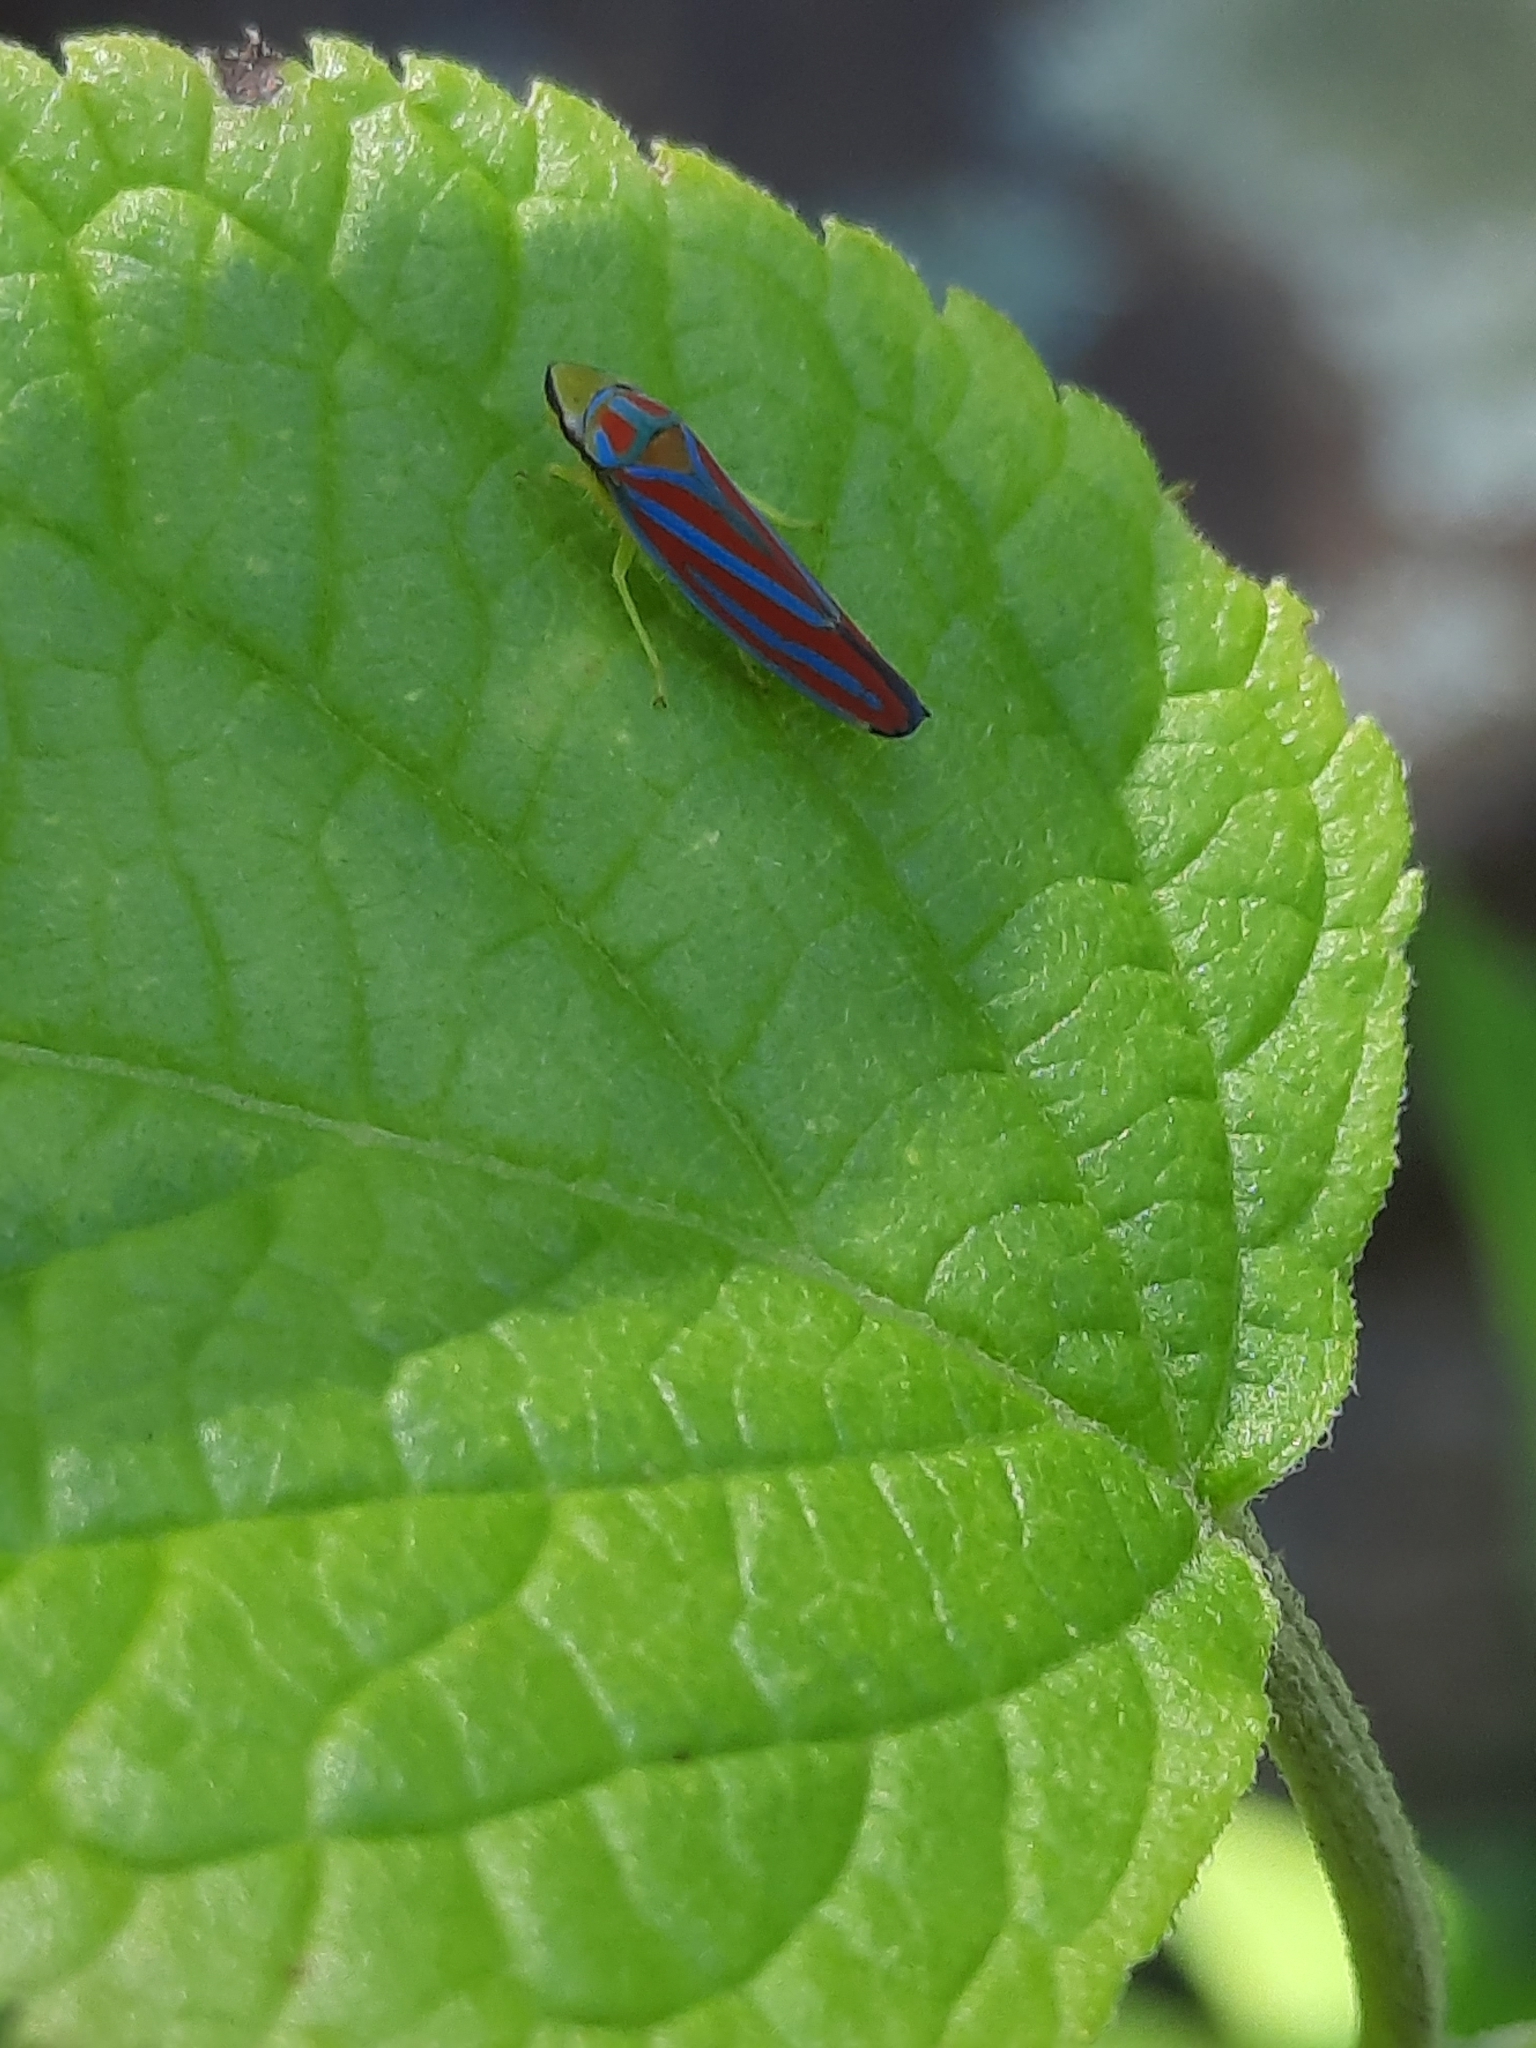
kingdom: Animalia
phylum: Arthropoda
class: Insecta
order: Hemiptera
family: Cicadellidae
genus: Graphocephala
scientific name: Graphocephala coccinea
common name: Candy-striped leafhopper
